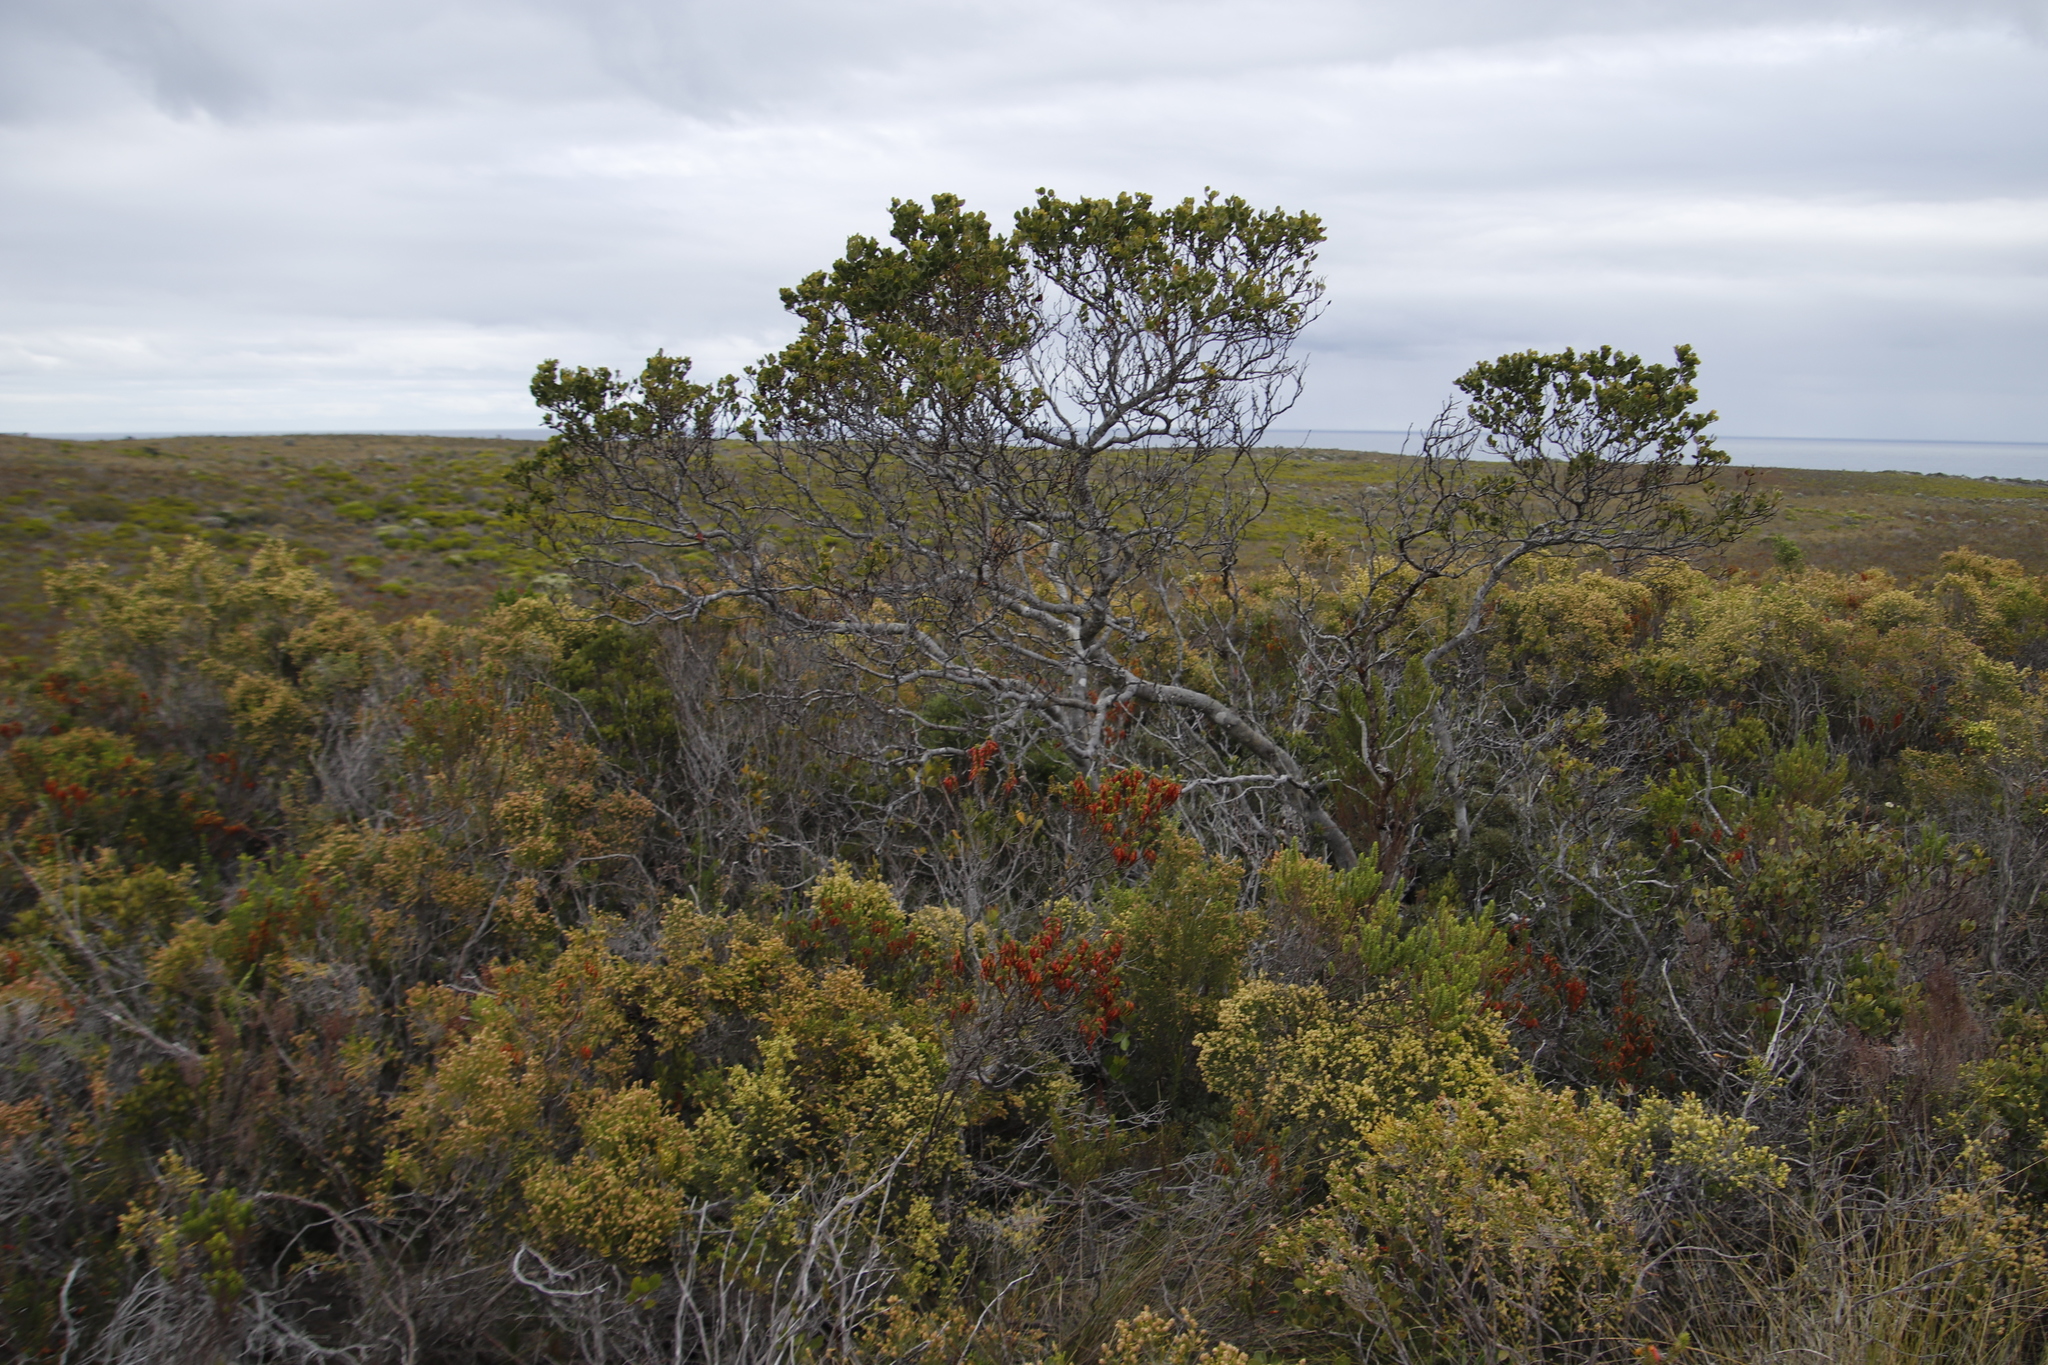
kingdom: Plantae
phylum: Tracheophyta
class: Magnoliopsida
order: Santalales
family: Santalaceae
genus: Osyris
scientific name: Osyris compressa
